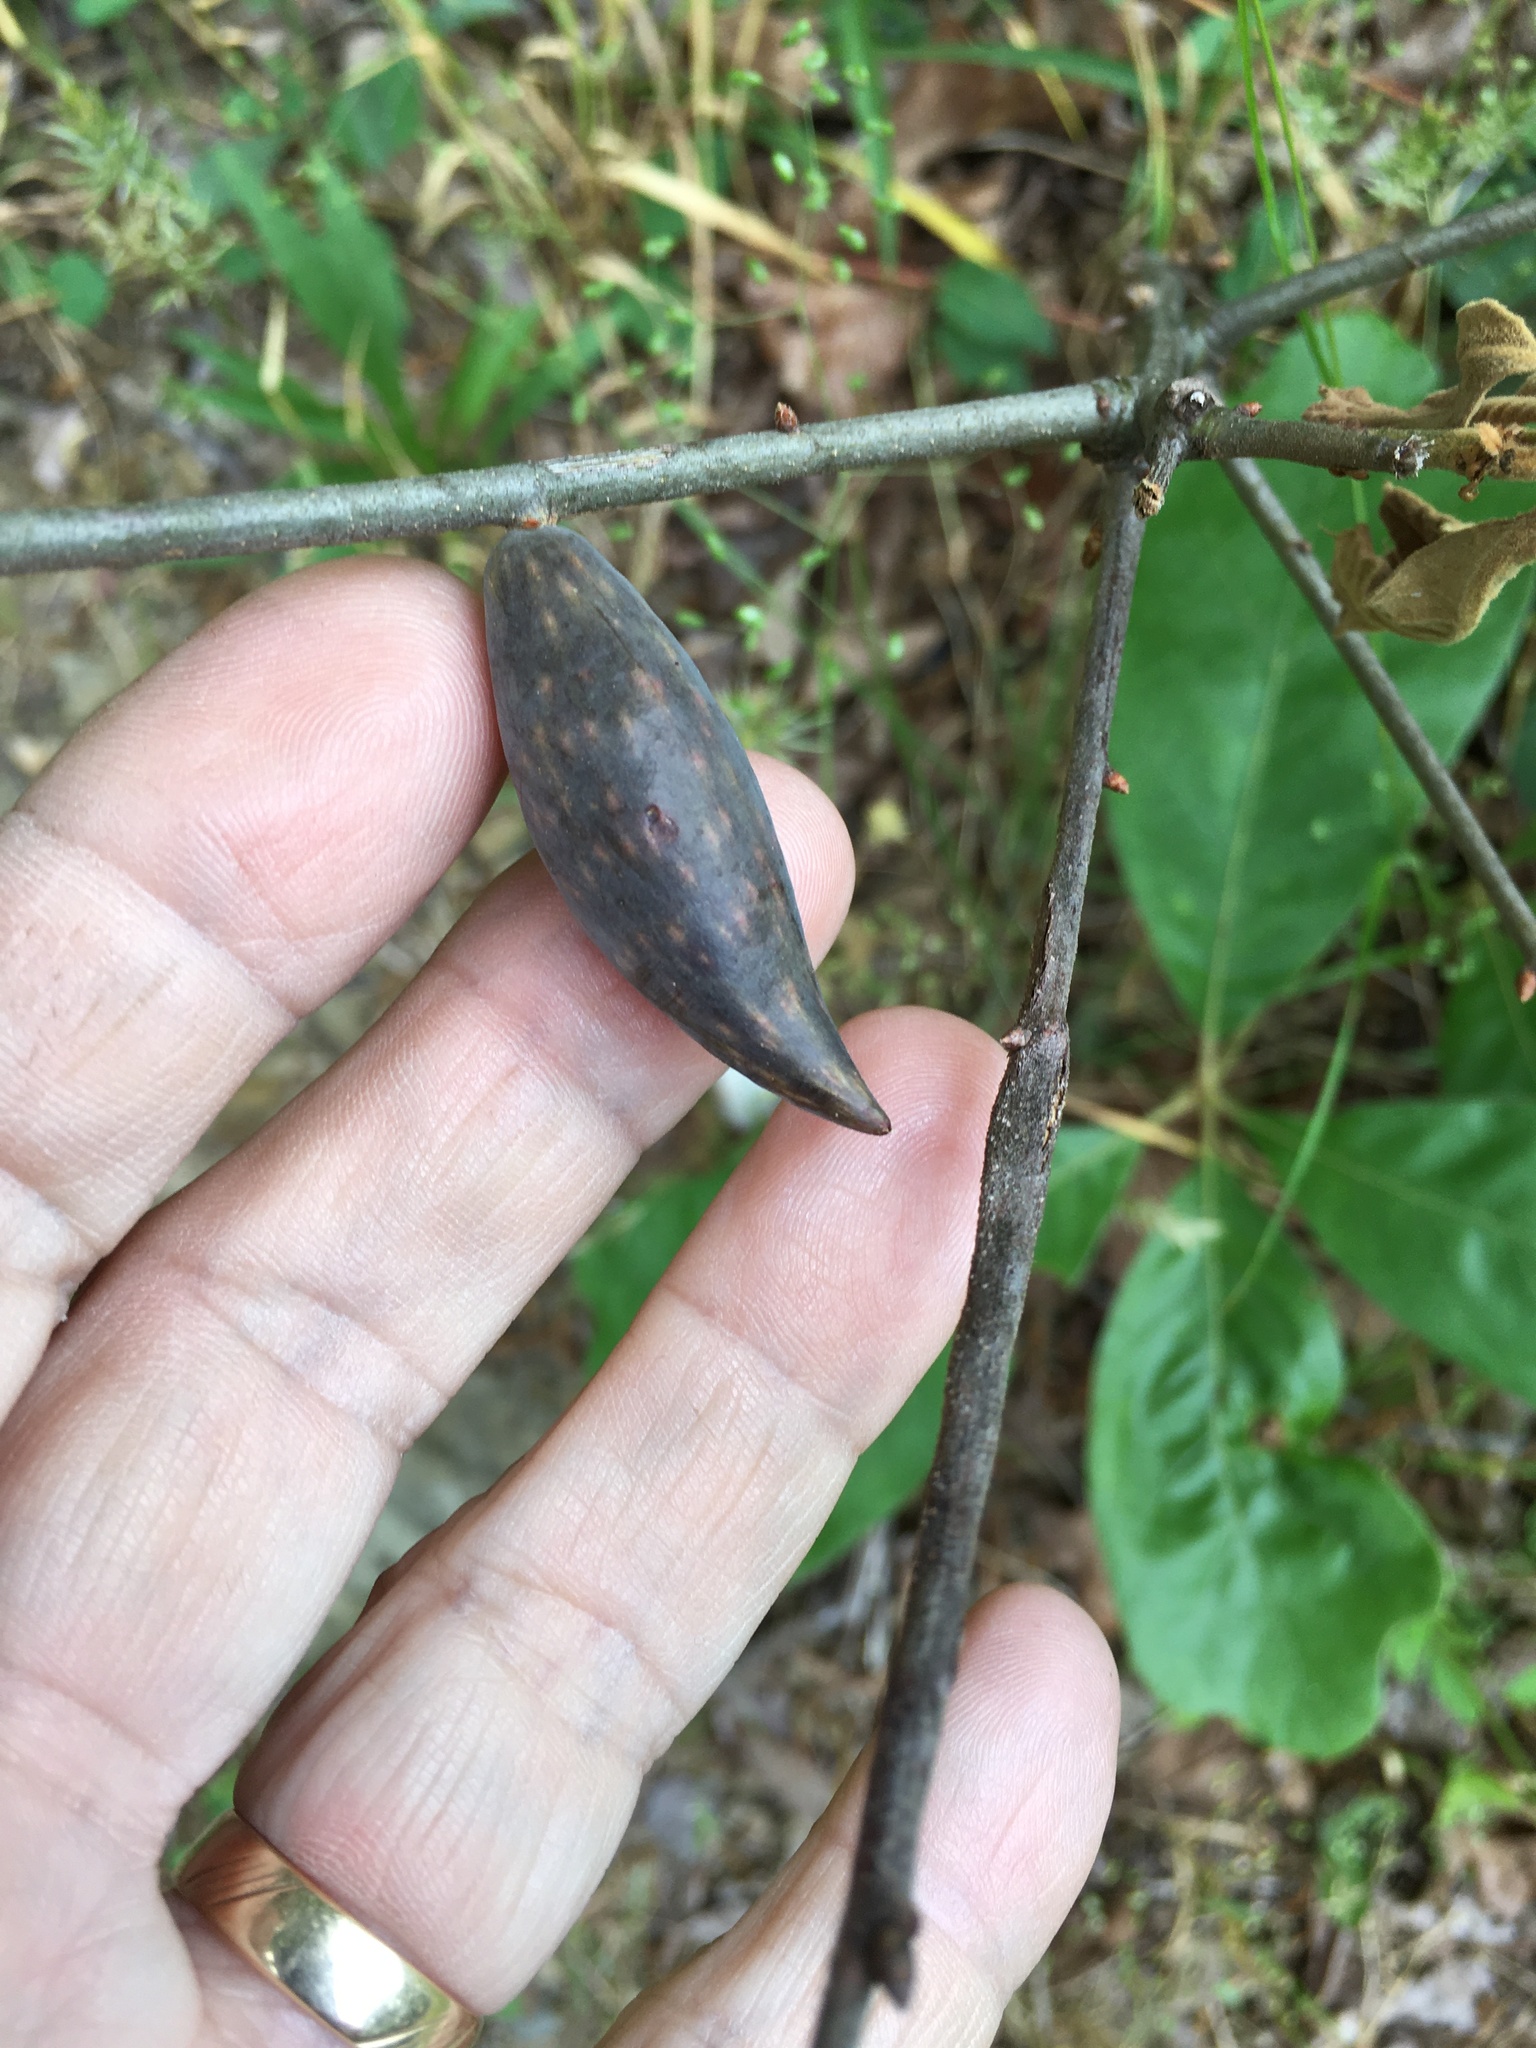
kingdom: Animalia
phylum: Arthropoda
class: Insecta
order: Hymenoptera
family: Cynipidae
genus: Amphibolips
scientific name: Amphibolips
